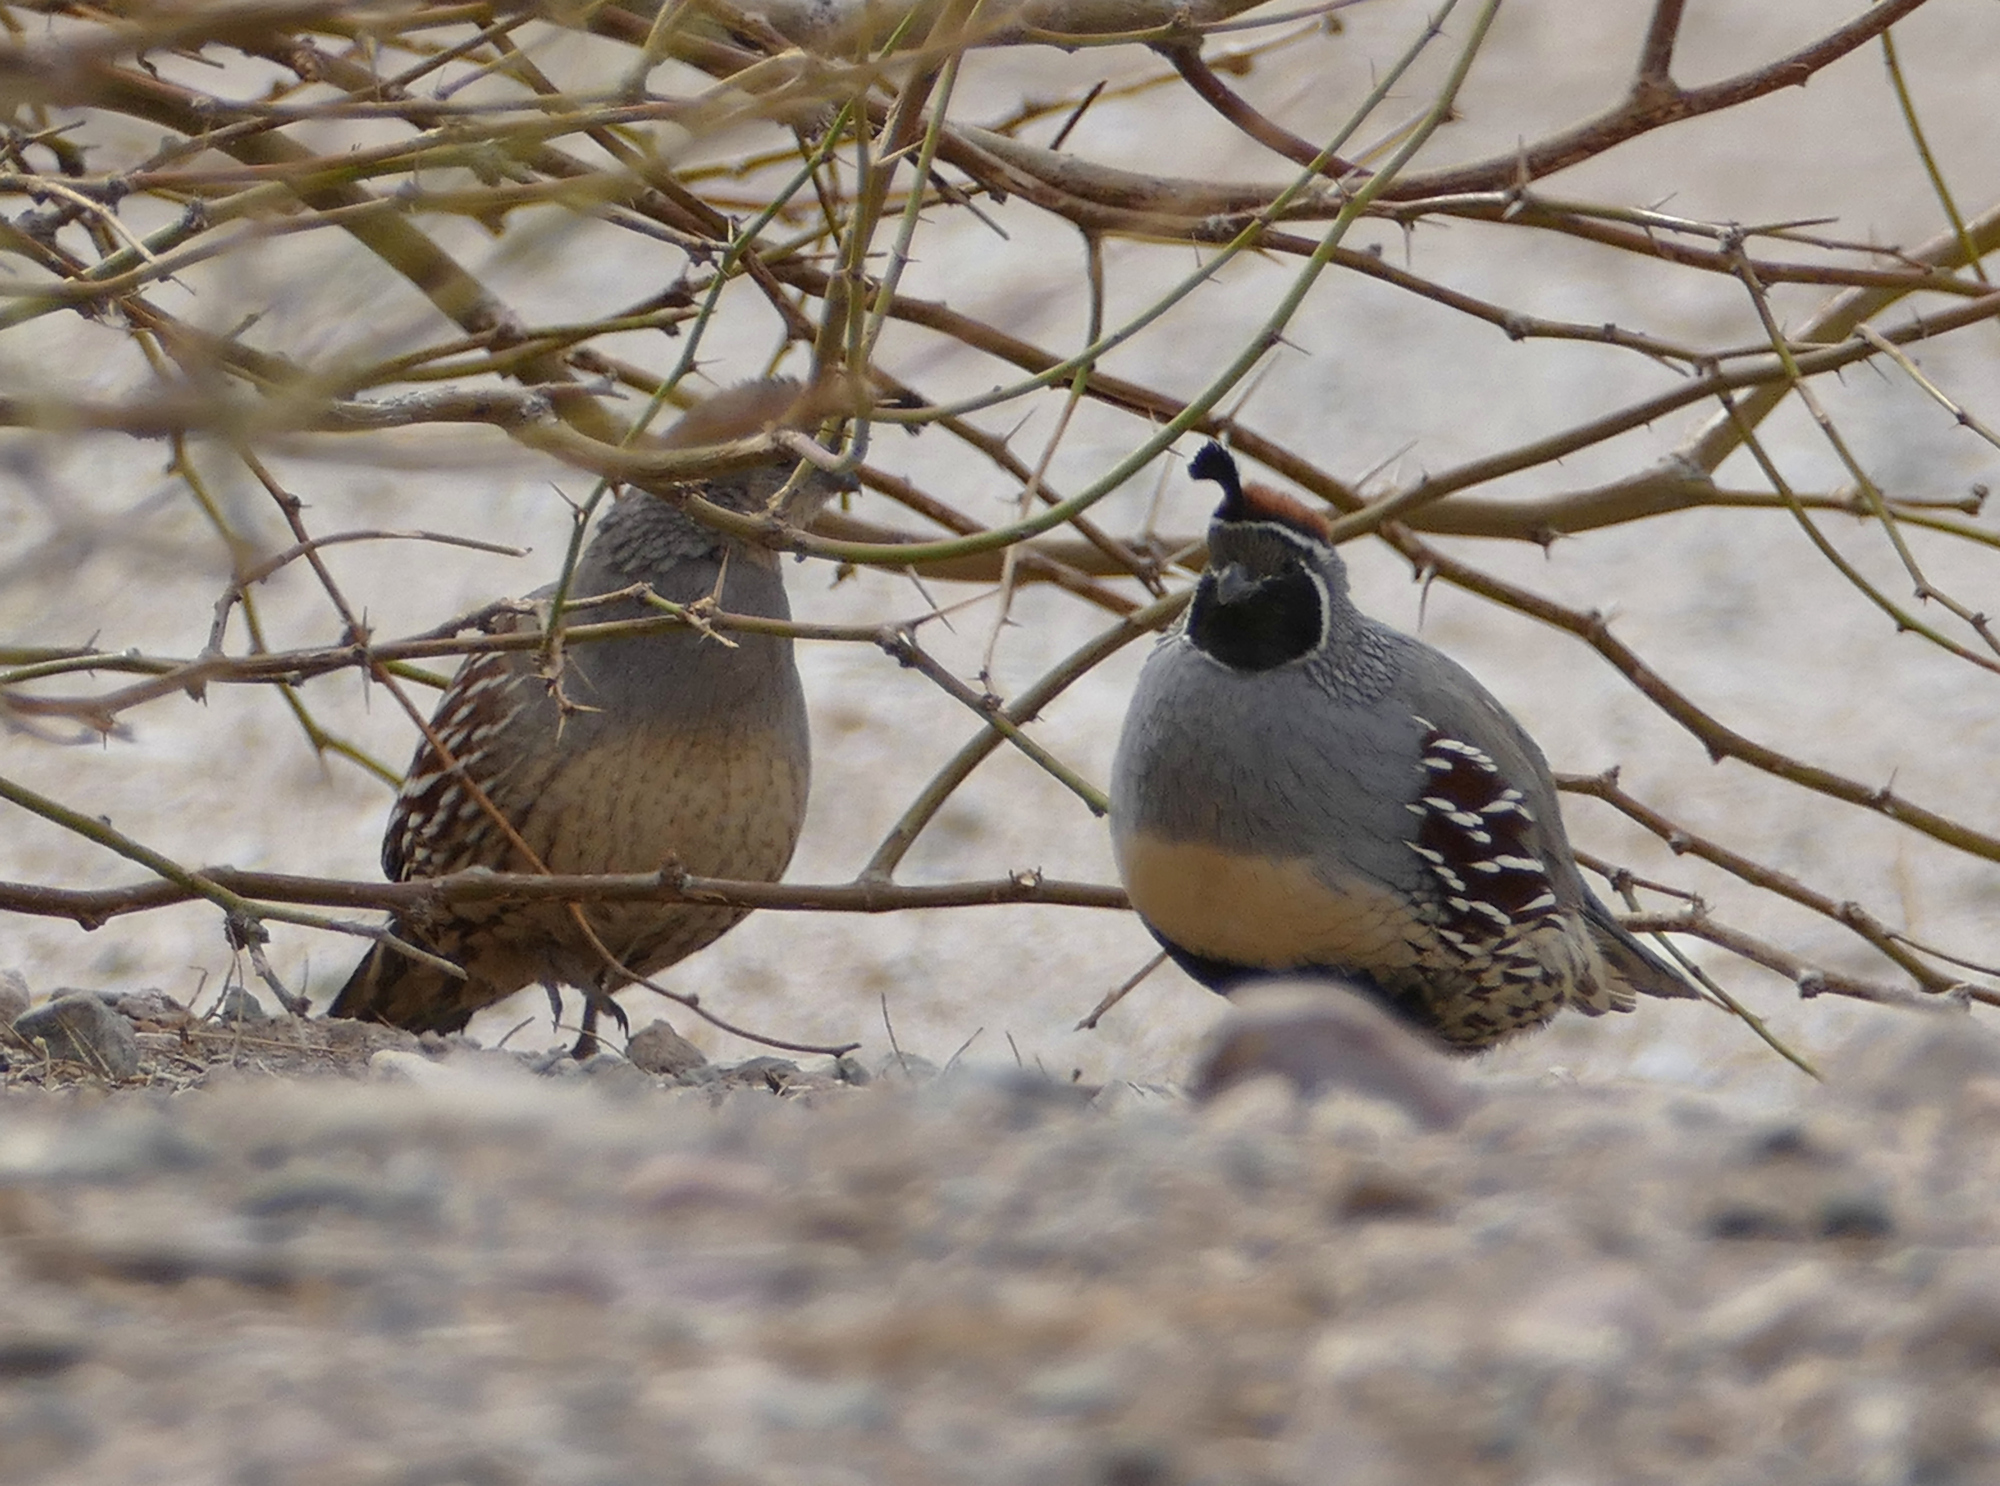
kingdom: Animalia
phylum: Chordata
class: Aves
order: Galliformes
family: Odontophoridae
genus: Callipepla
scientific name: Callipepla gambelii
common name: Gambel's quail
